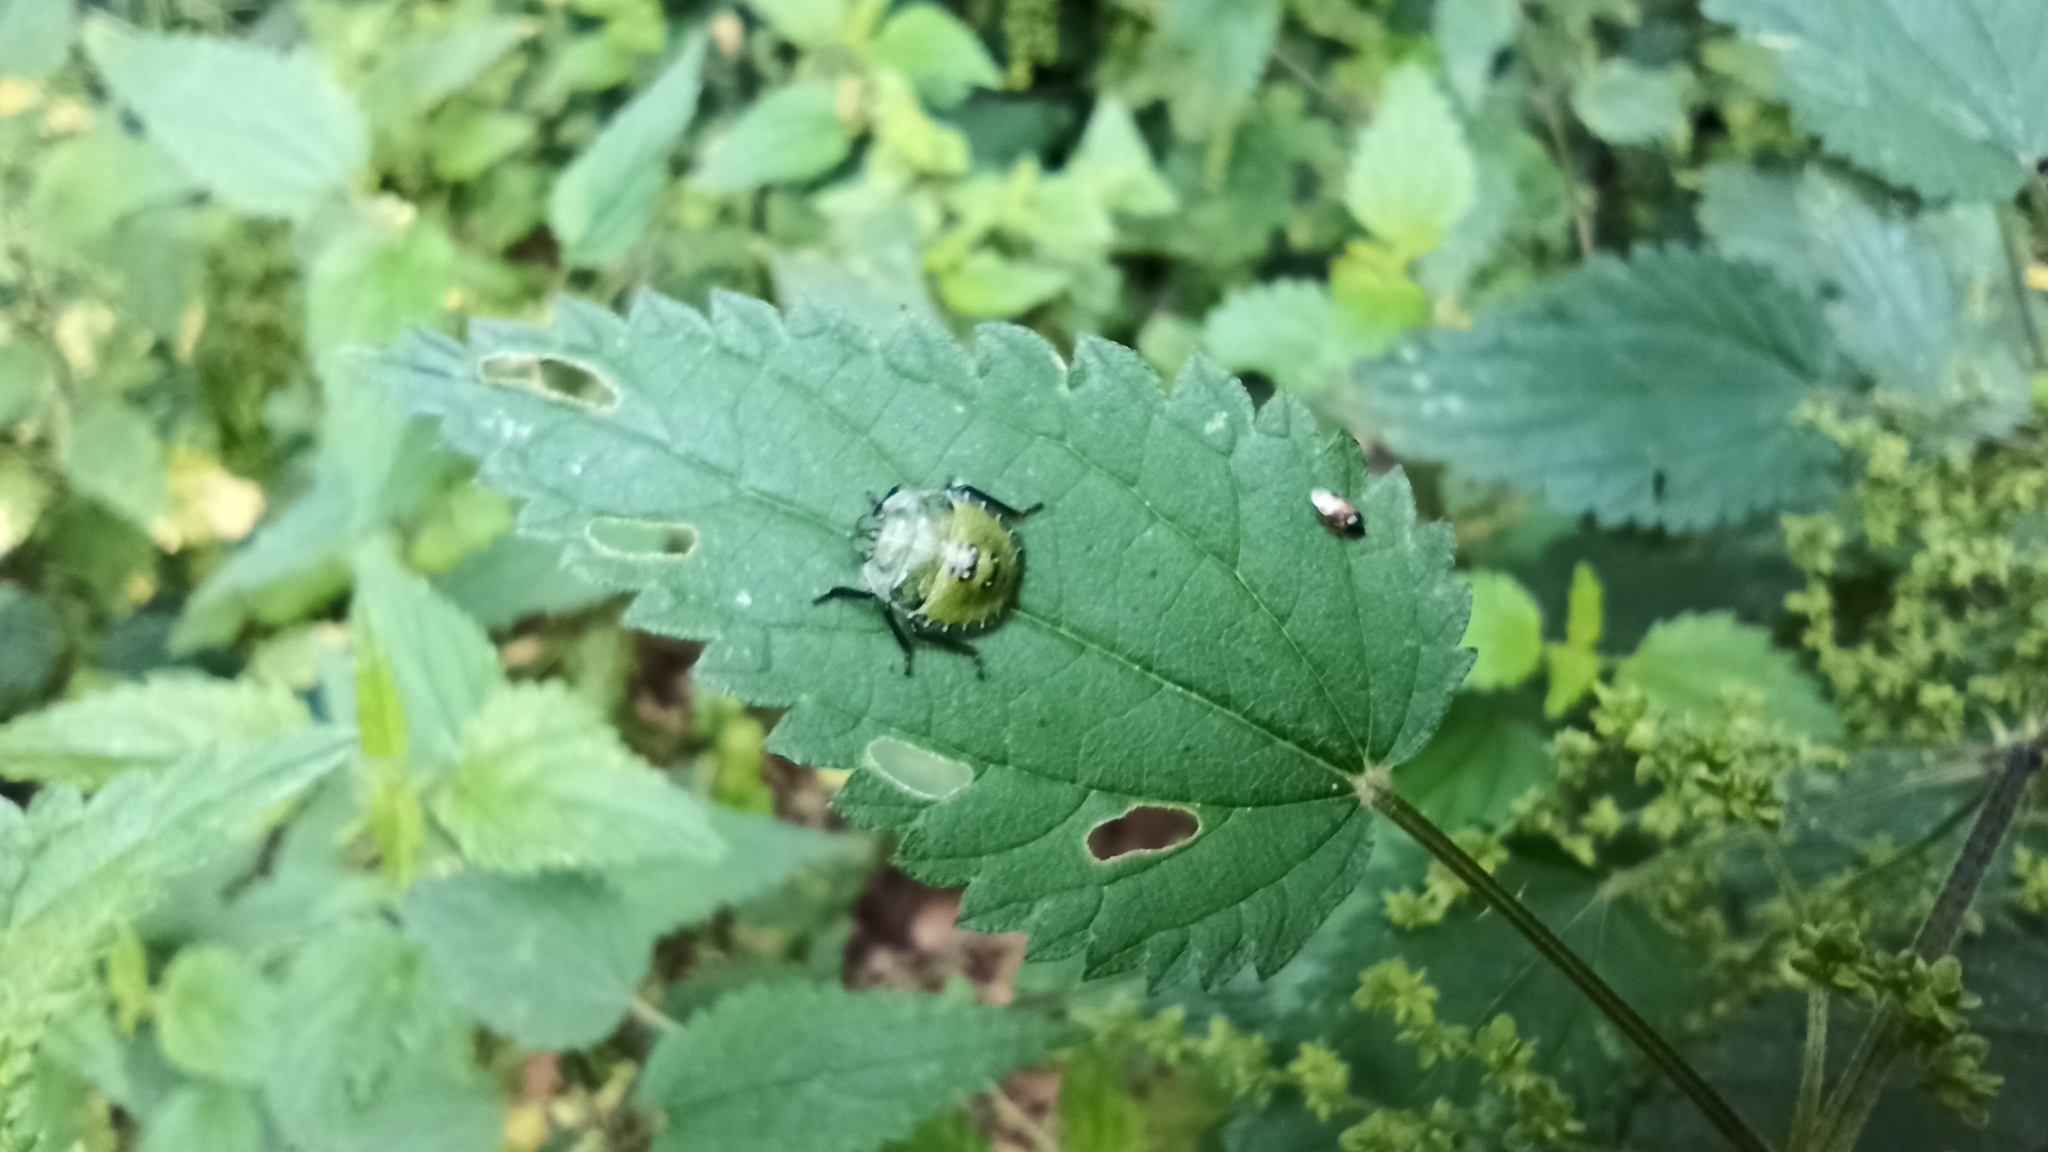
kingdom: Animalia
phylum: Arthropoda
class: Insecta
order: Hemiptera
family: Pentatomidae
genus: Palomena
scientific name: Palomena prasina
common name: Green shieldbug
